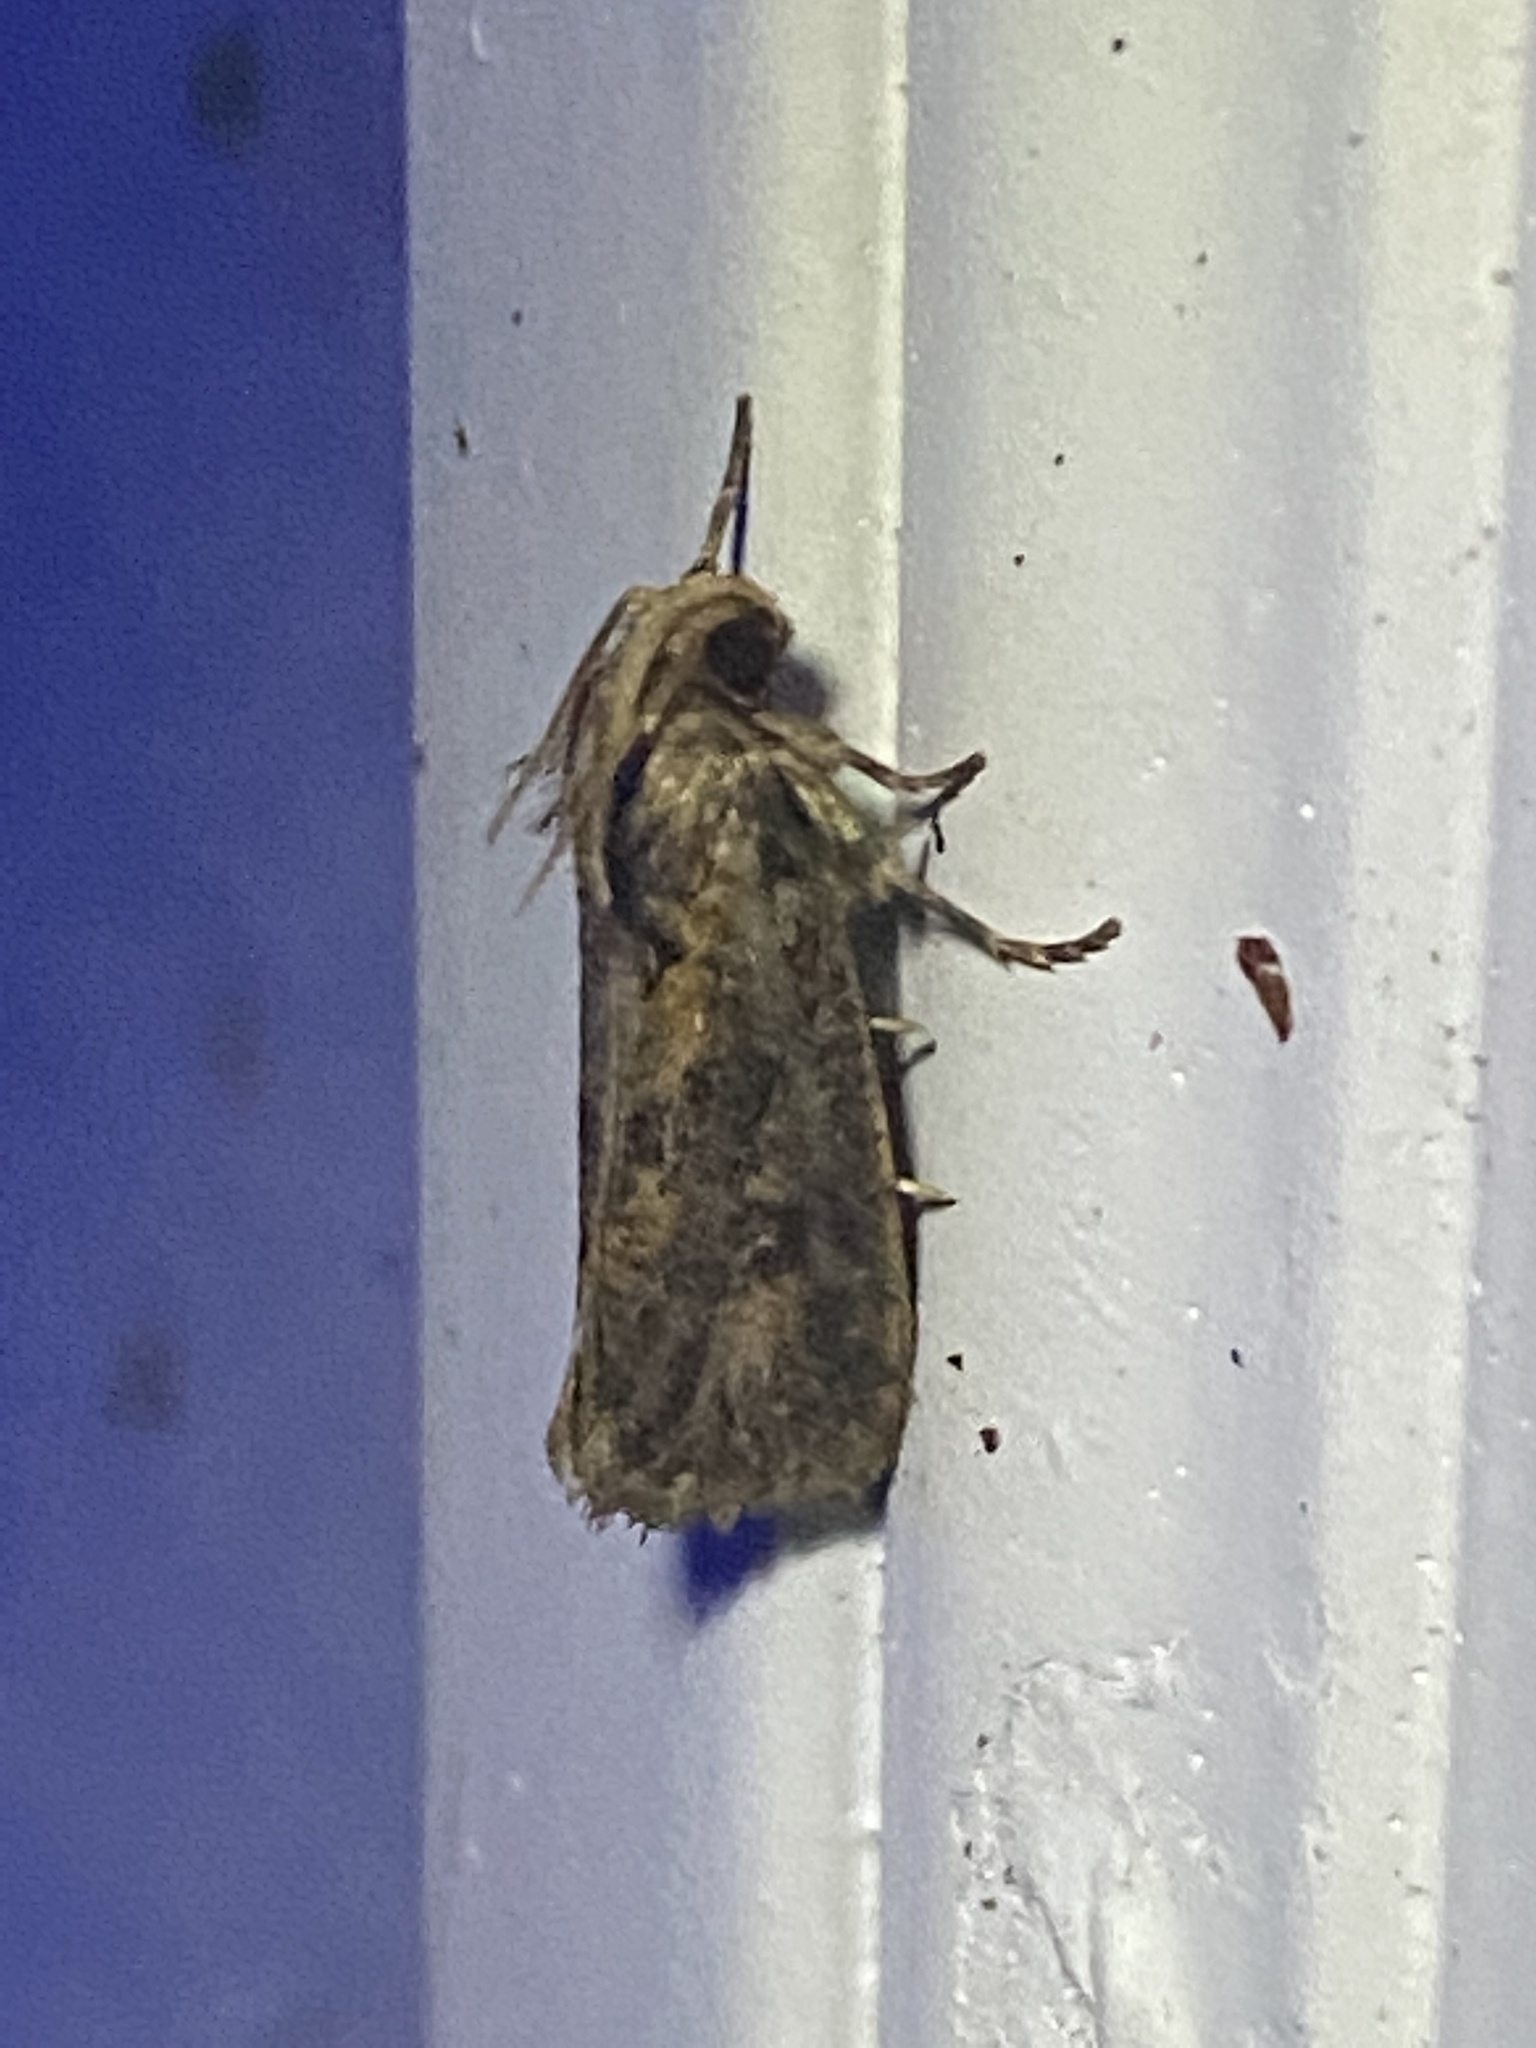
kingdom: Animalia
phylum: Arthropoda
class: Insecta
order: Lepidoptera
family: Tineidae
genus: Acrolophus
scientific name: Acrolophus popeanella
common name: Clemens' grass tubeworm moth
